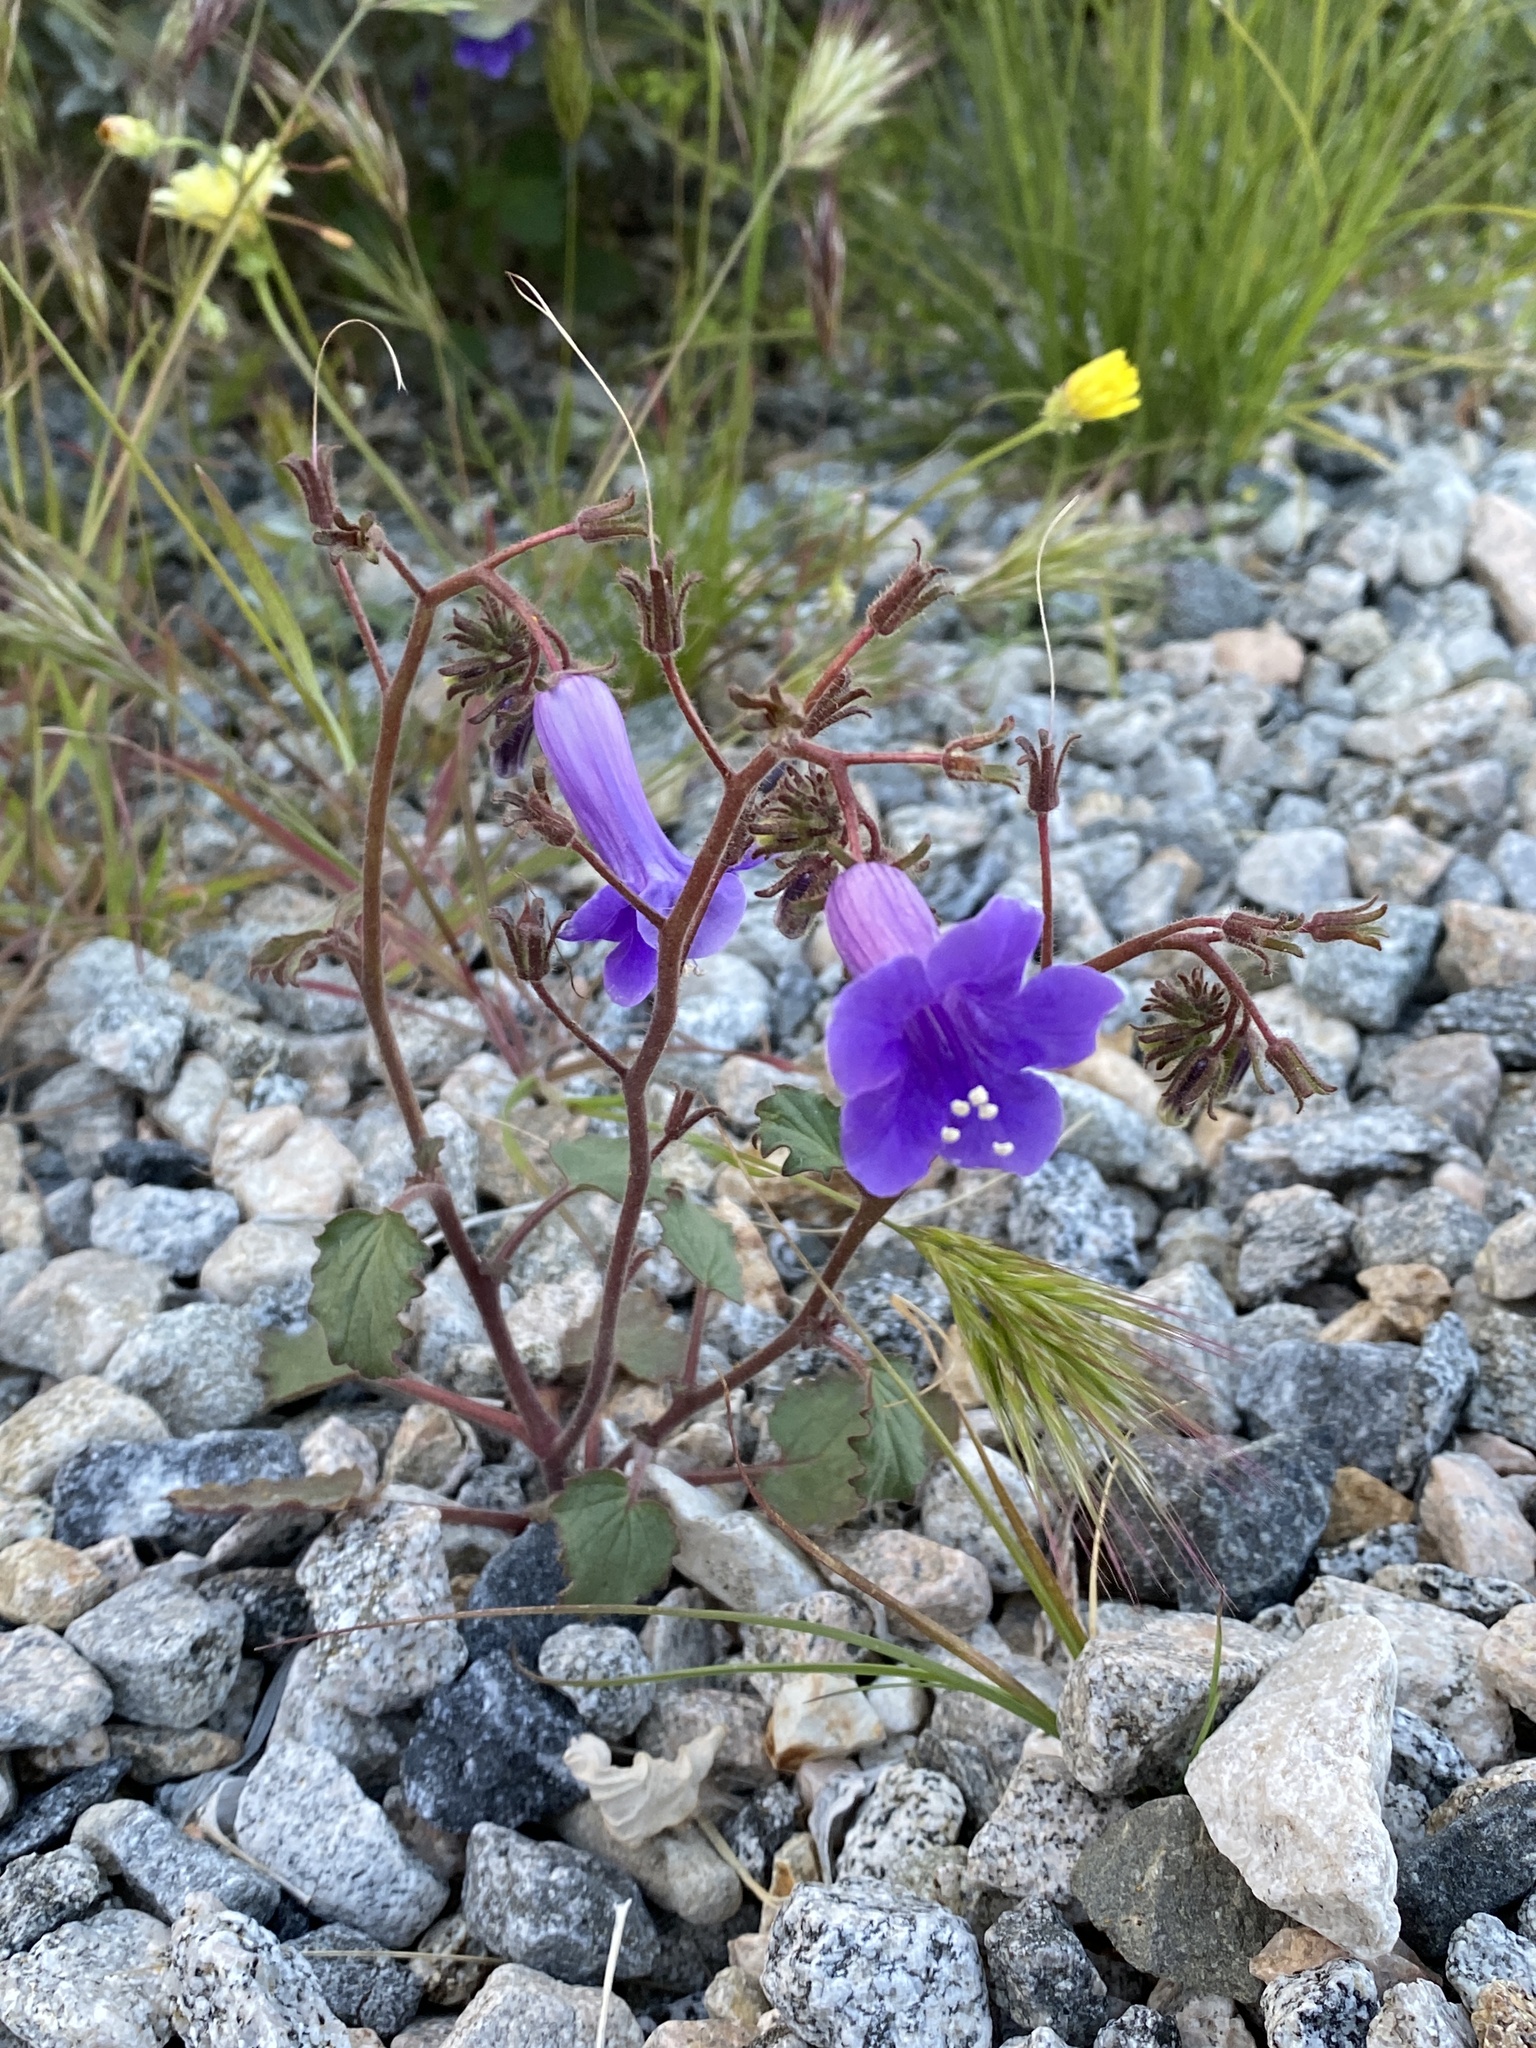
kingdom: Plantae
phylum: Tracheophyta
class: Magnoliopsida
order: Boraginales
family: Hydrophyllaceae
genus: Phacelia
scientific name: Phacelia minor
